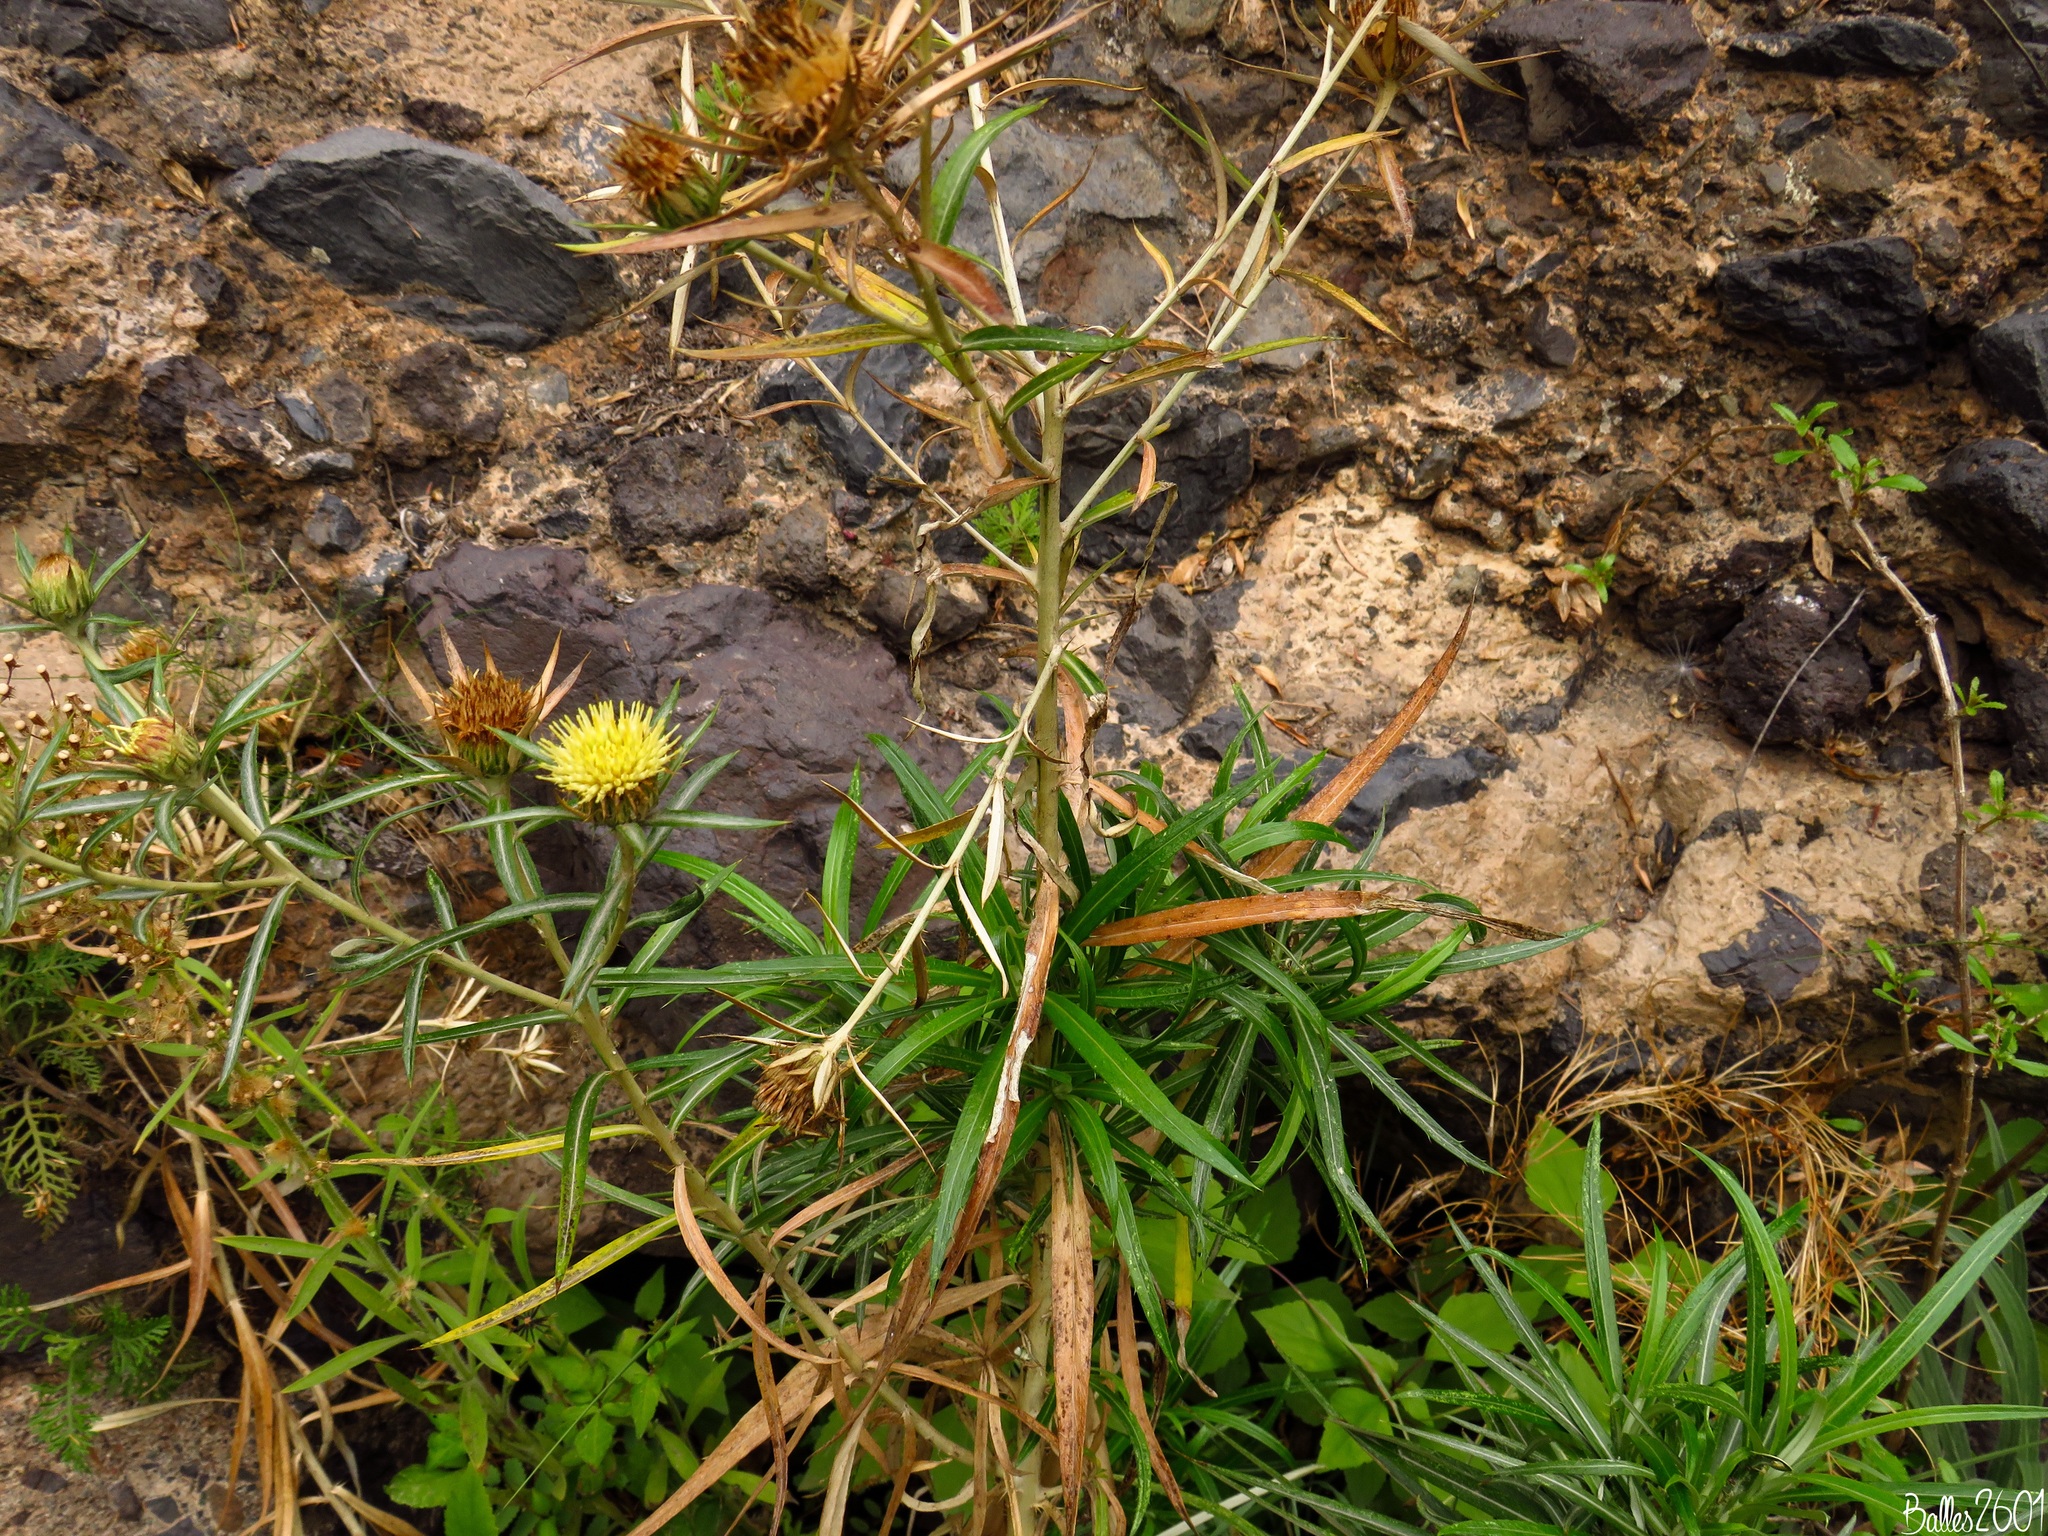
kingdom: Plantae
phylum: Tracheophyta
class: Magnoliopsida
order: Asterales
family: Asteraceae
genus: Carlina
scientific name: Carlina salicifolia
